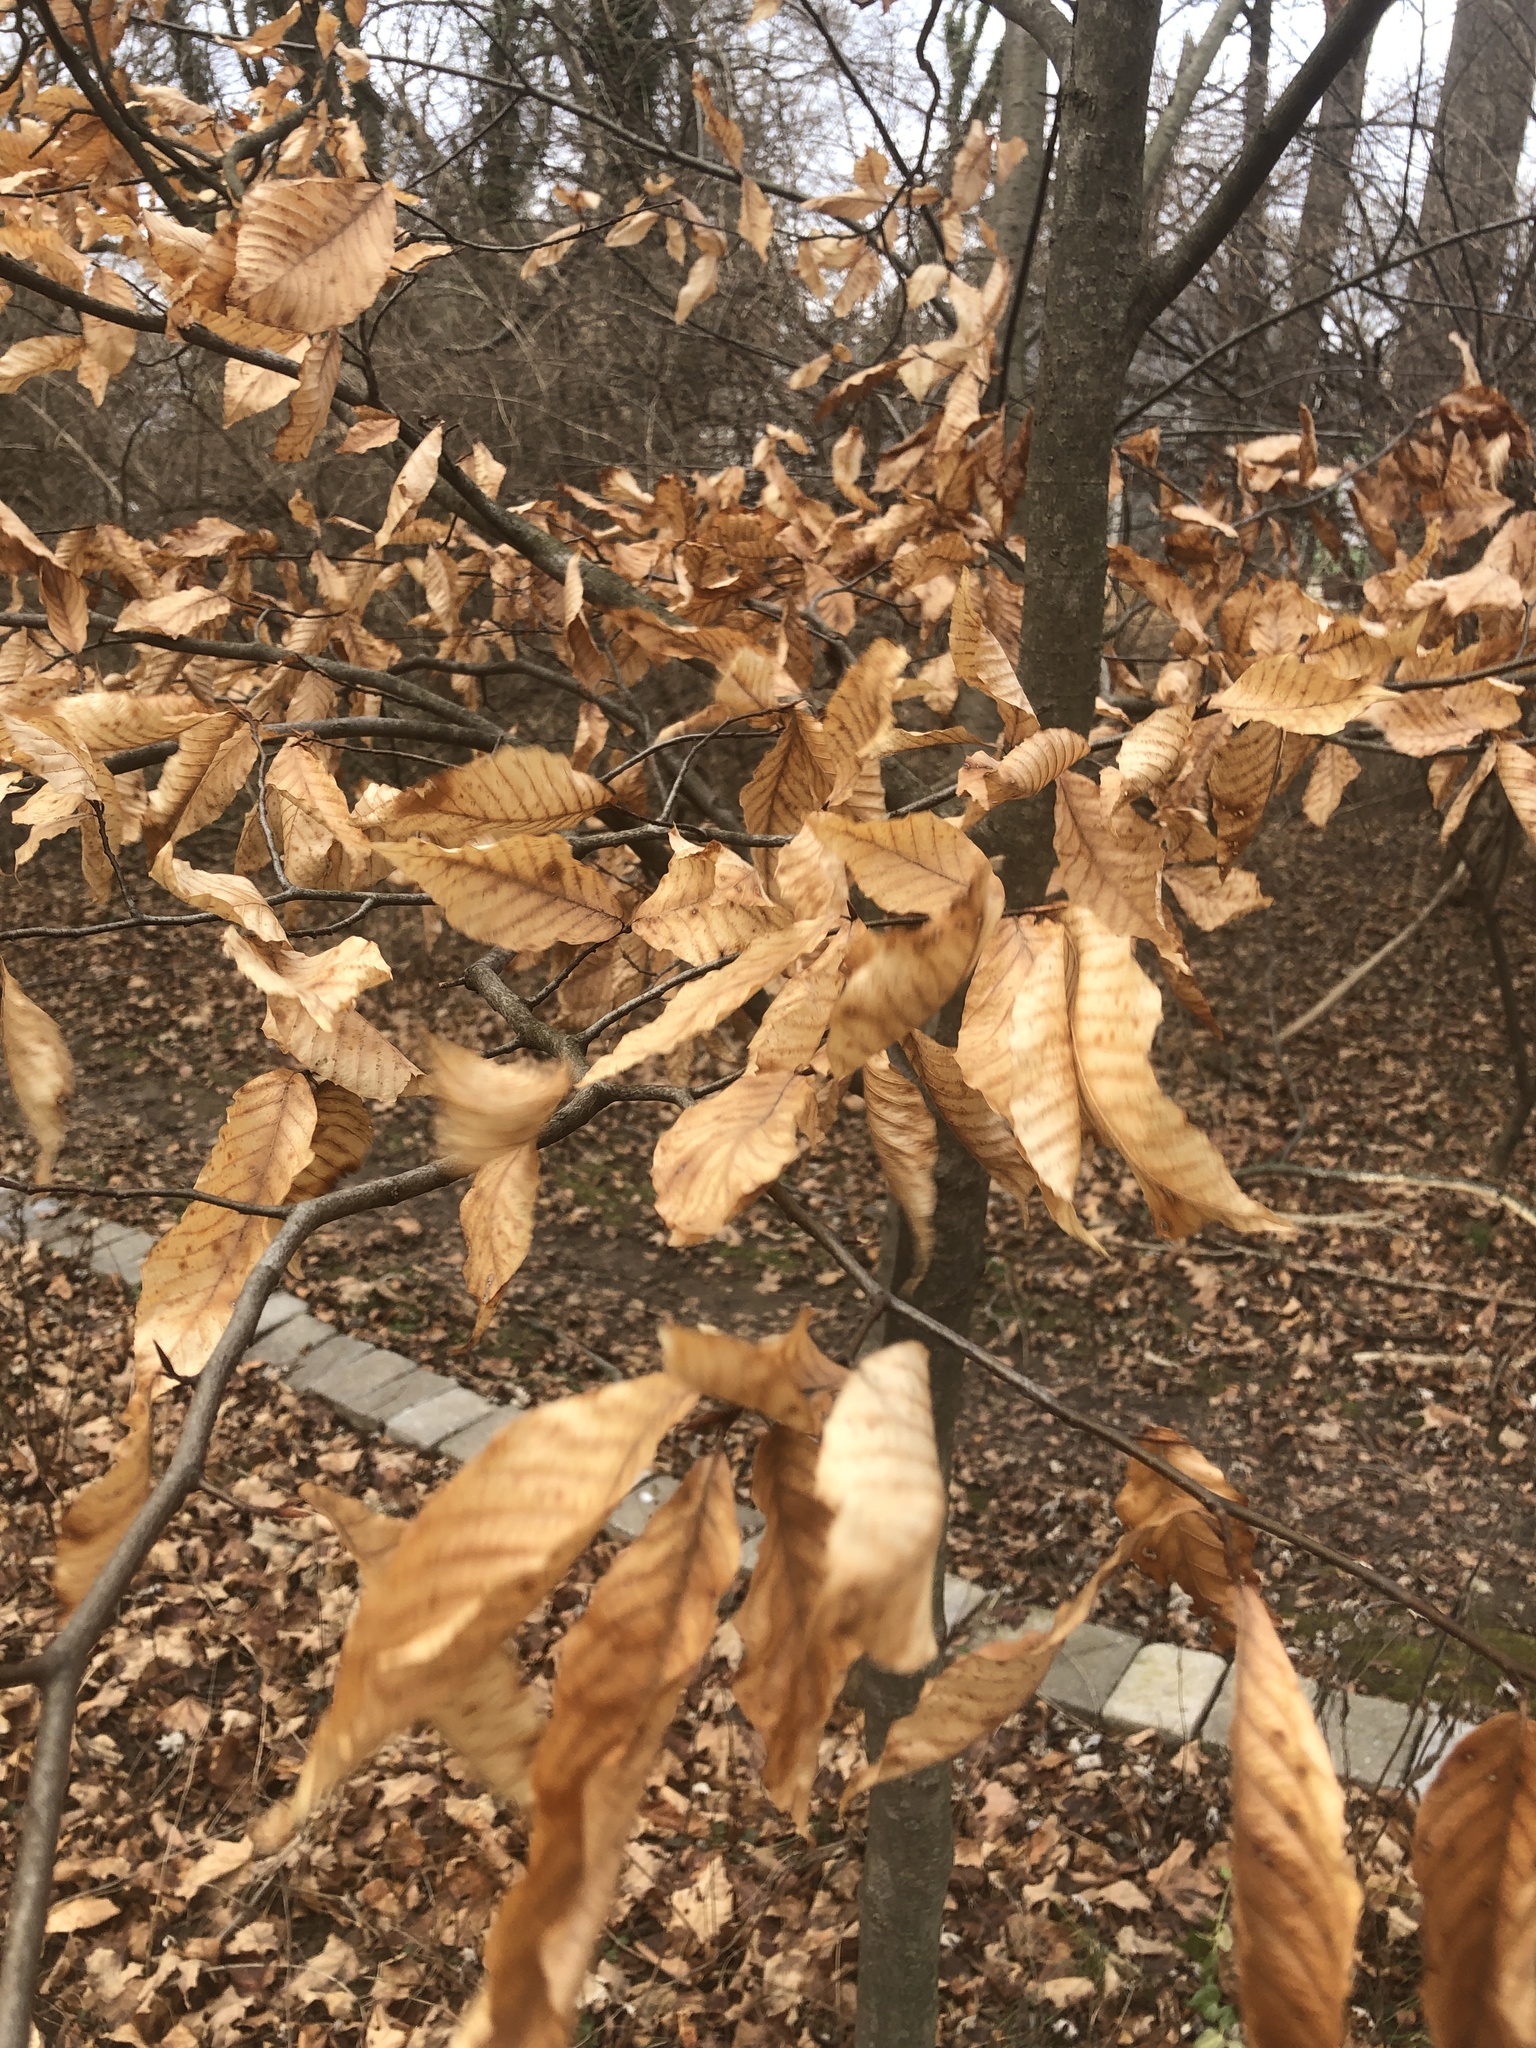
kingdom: Plantae
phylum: Tracheophyta
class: Magnoliopsida
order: Fagales
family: Fagaceae
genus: Fagus
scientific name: Fagus grandifolia
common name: American beech
